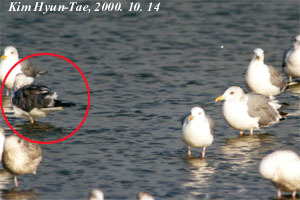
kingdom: Animalia
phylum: Chordata
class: Aves
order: Charadriiformes
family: Laridae
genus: Larus
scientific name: Larus fuscus
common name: Lesser black-backed gull
